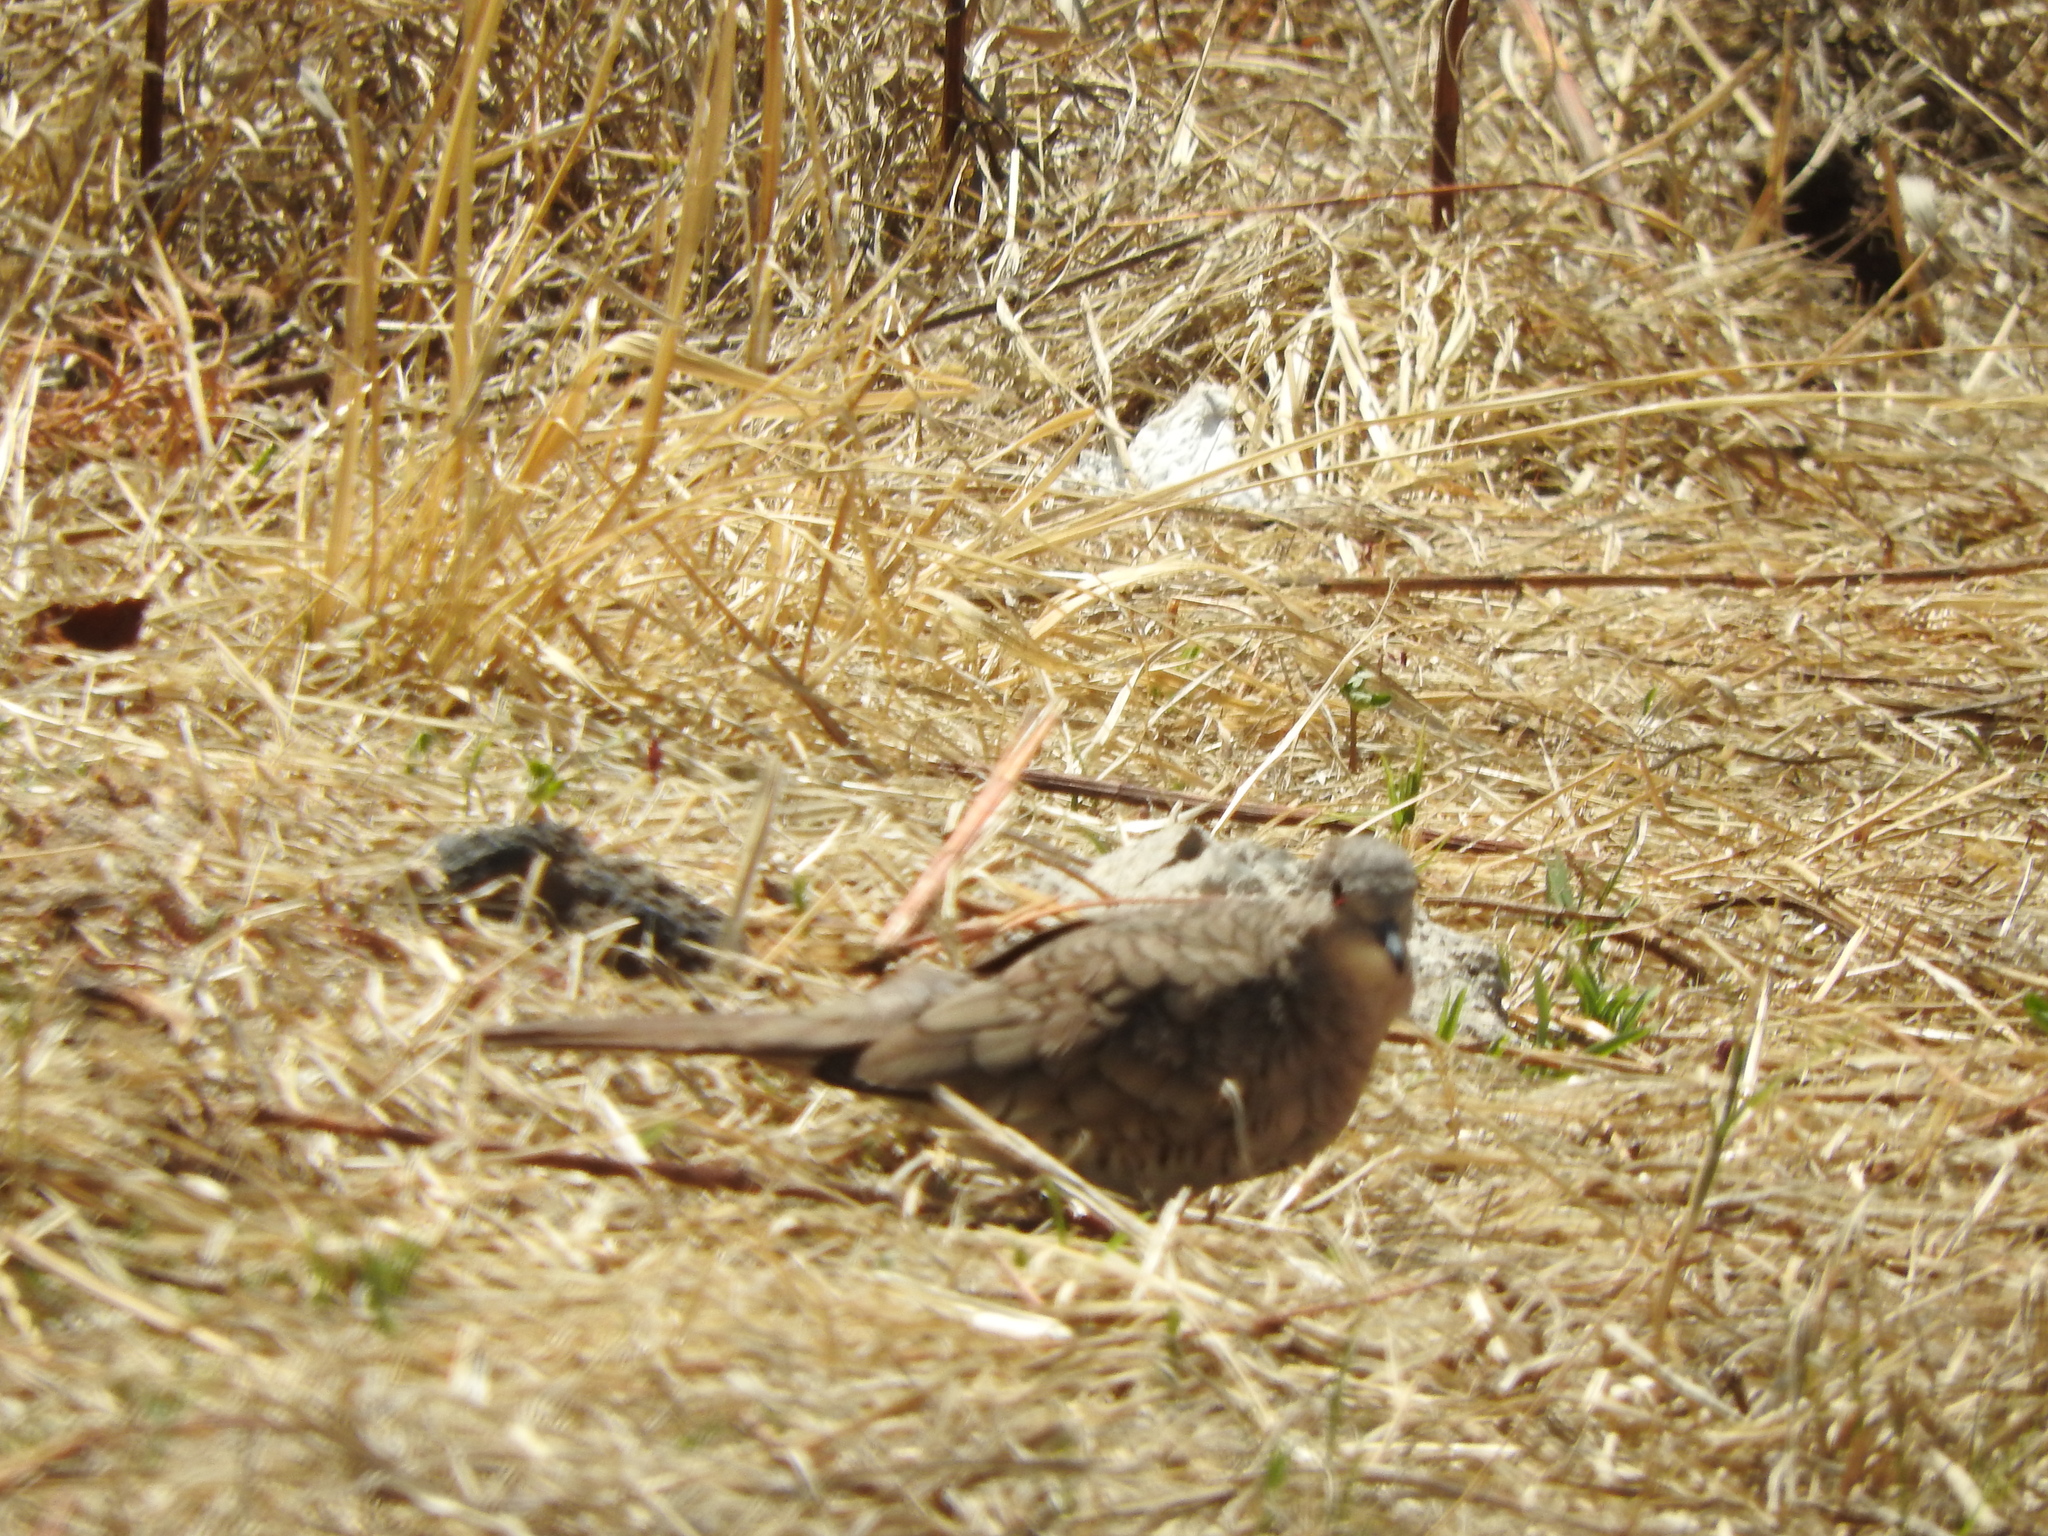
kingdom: Animalia
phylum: Chordata
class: Aves
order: Columbiformes
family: Columbidae
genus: Columbina
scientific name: Columbina inca
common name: Inca dove
